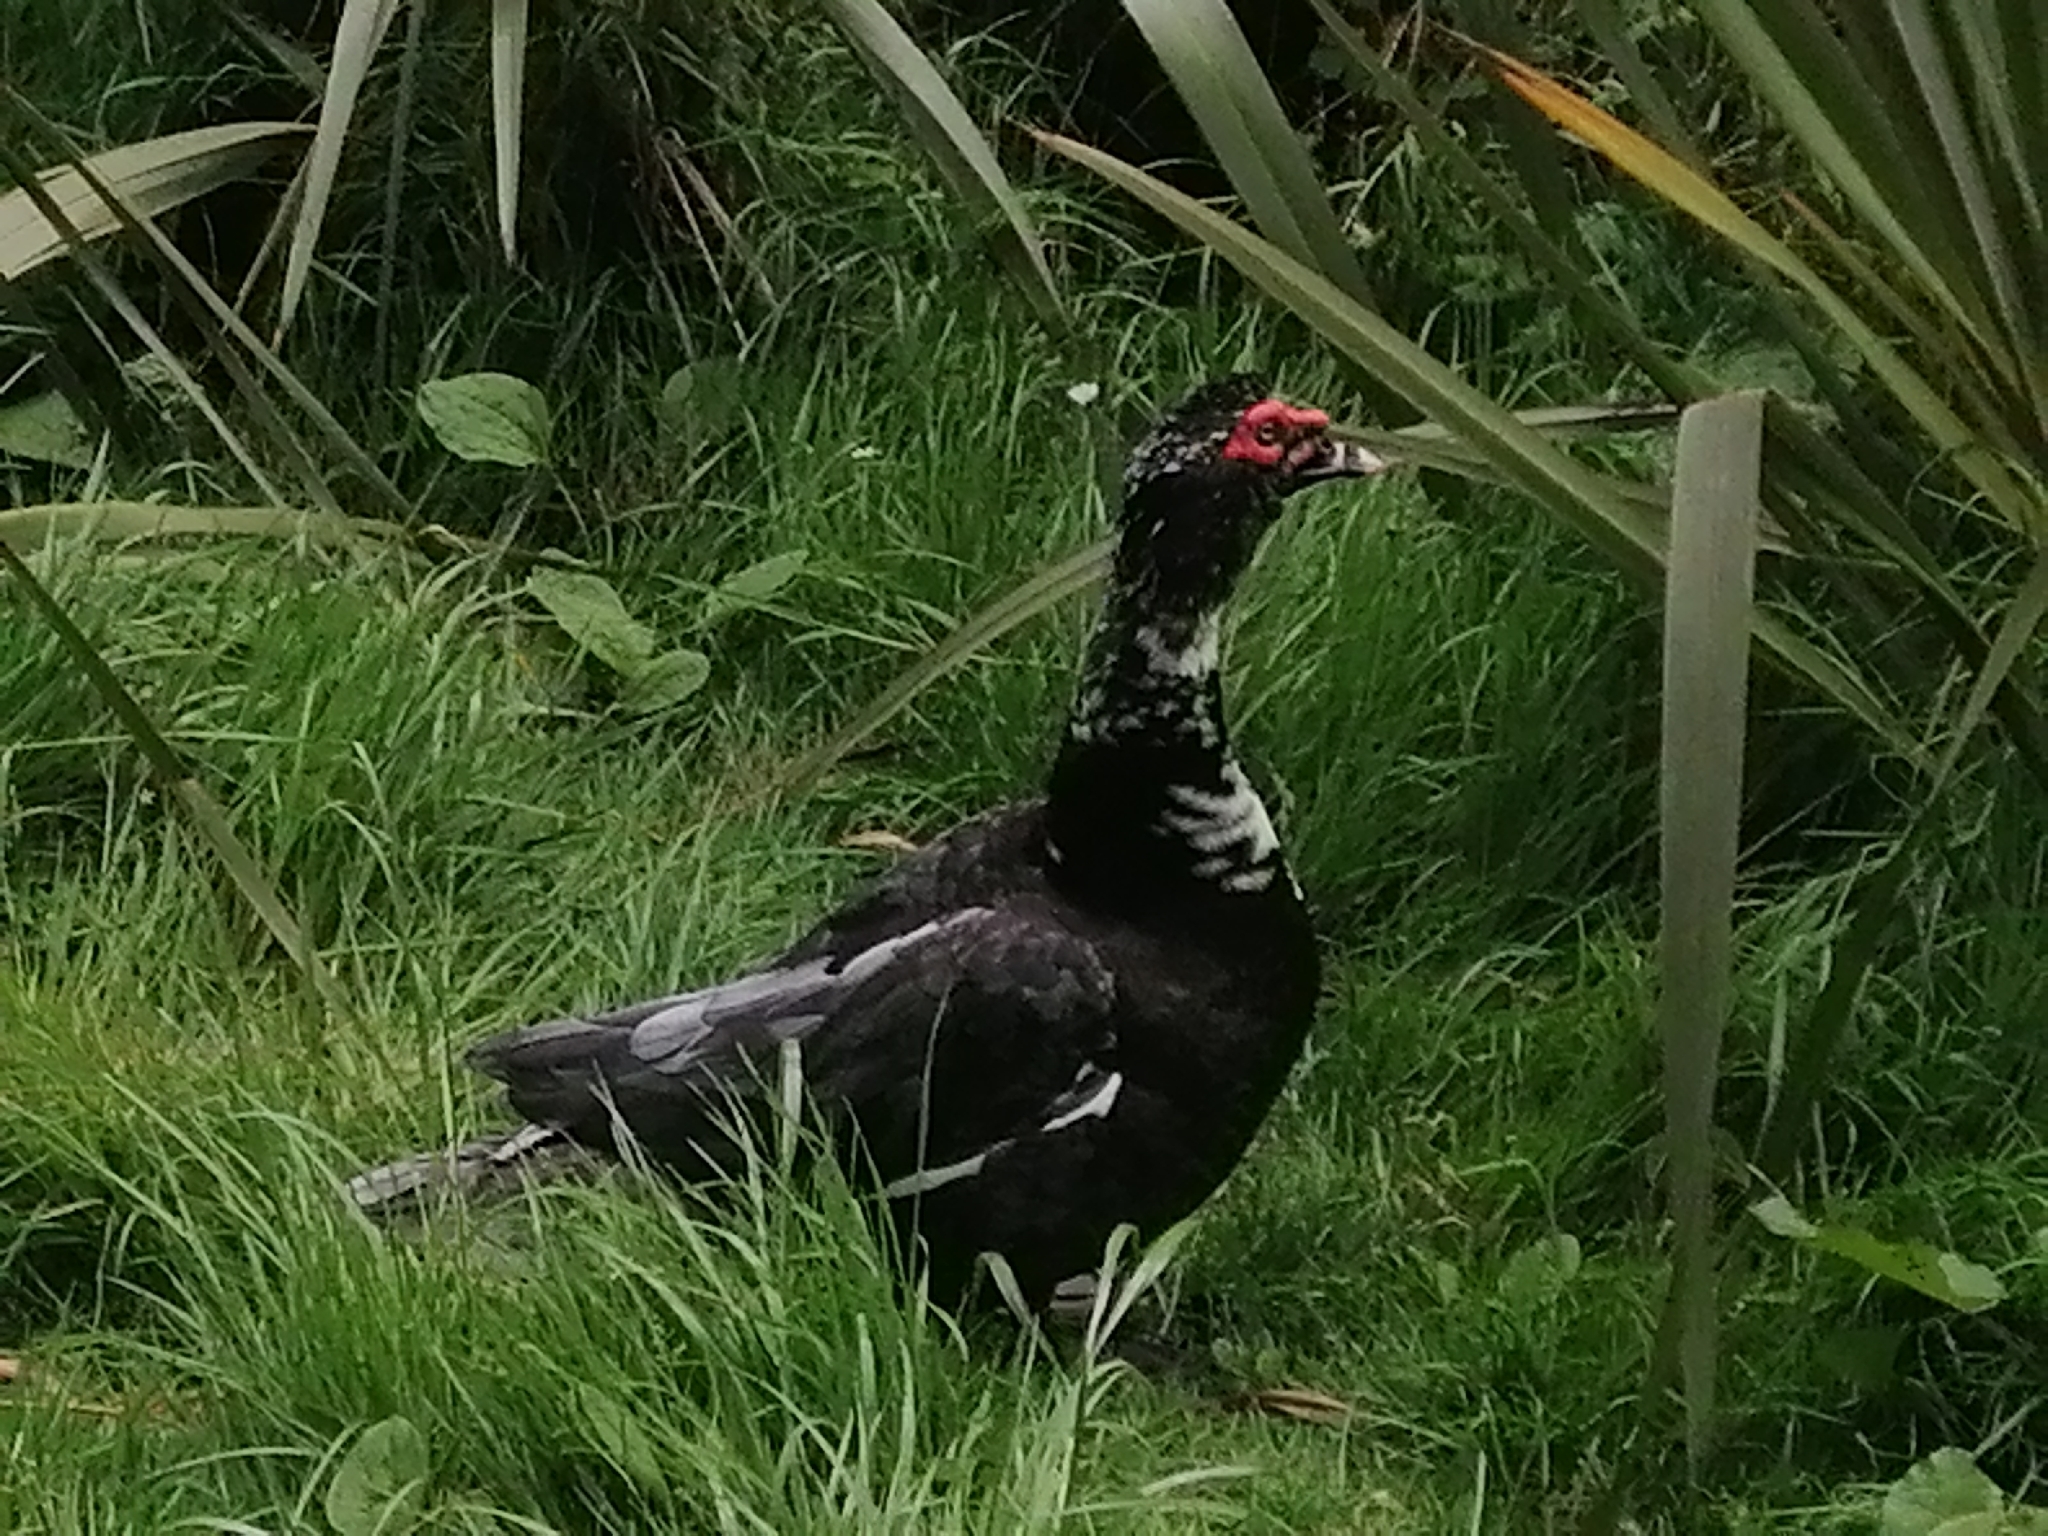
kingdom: Animalia
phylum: Chordata
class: Aves
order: Anseriformes
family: Anatidae
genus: Cairina
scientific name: Cairina moschata
